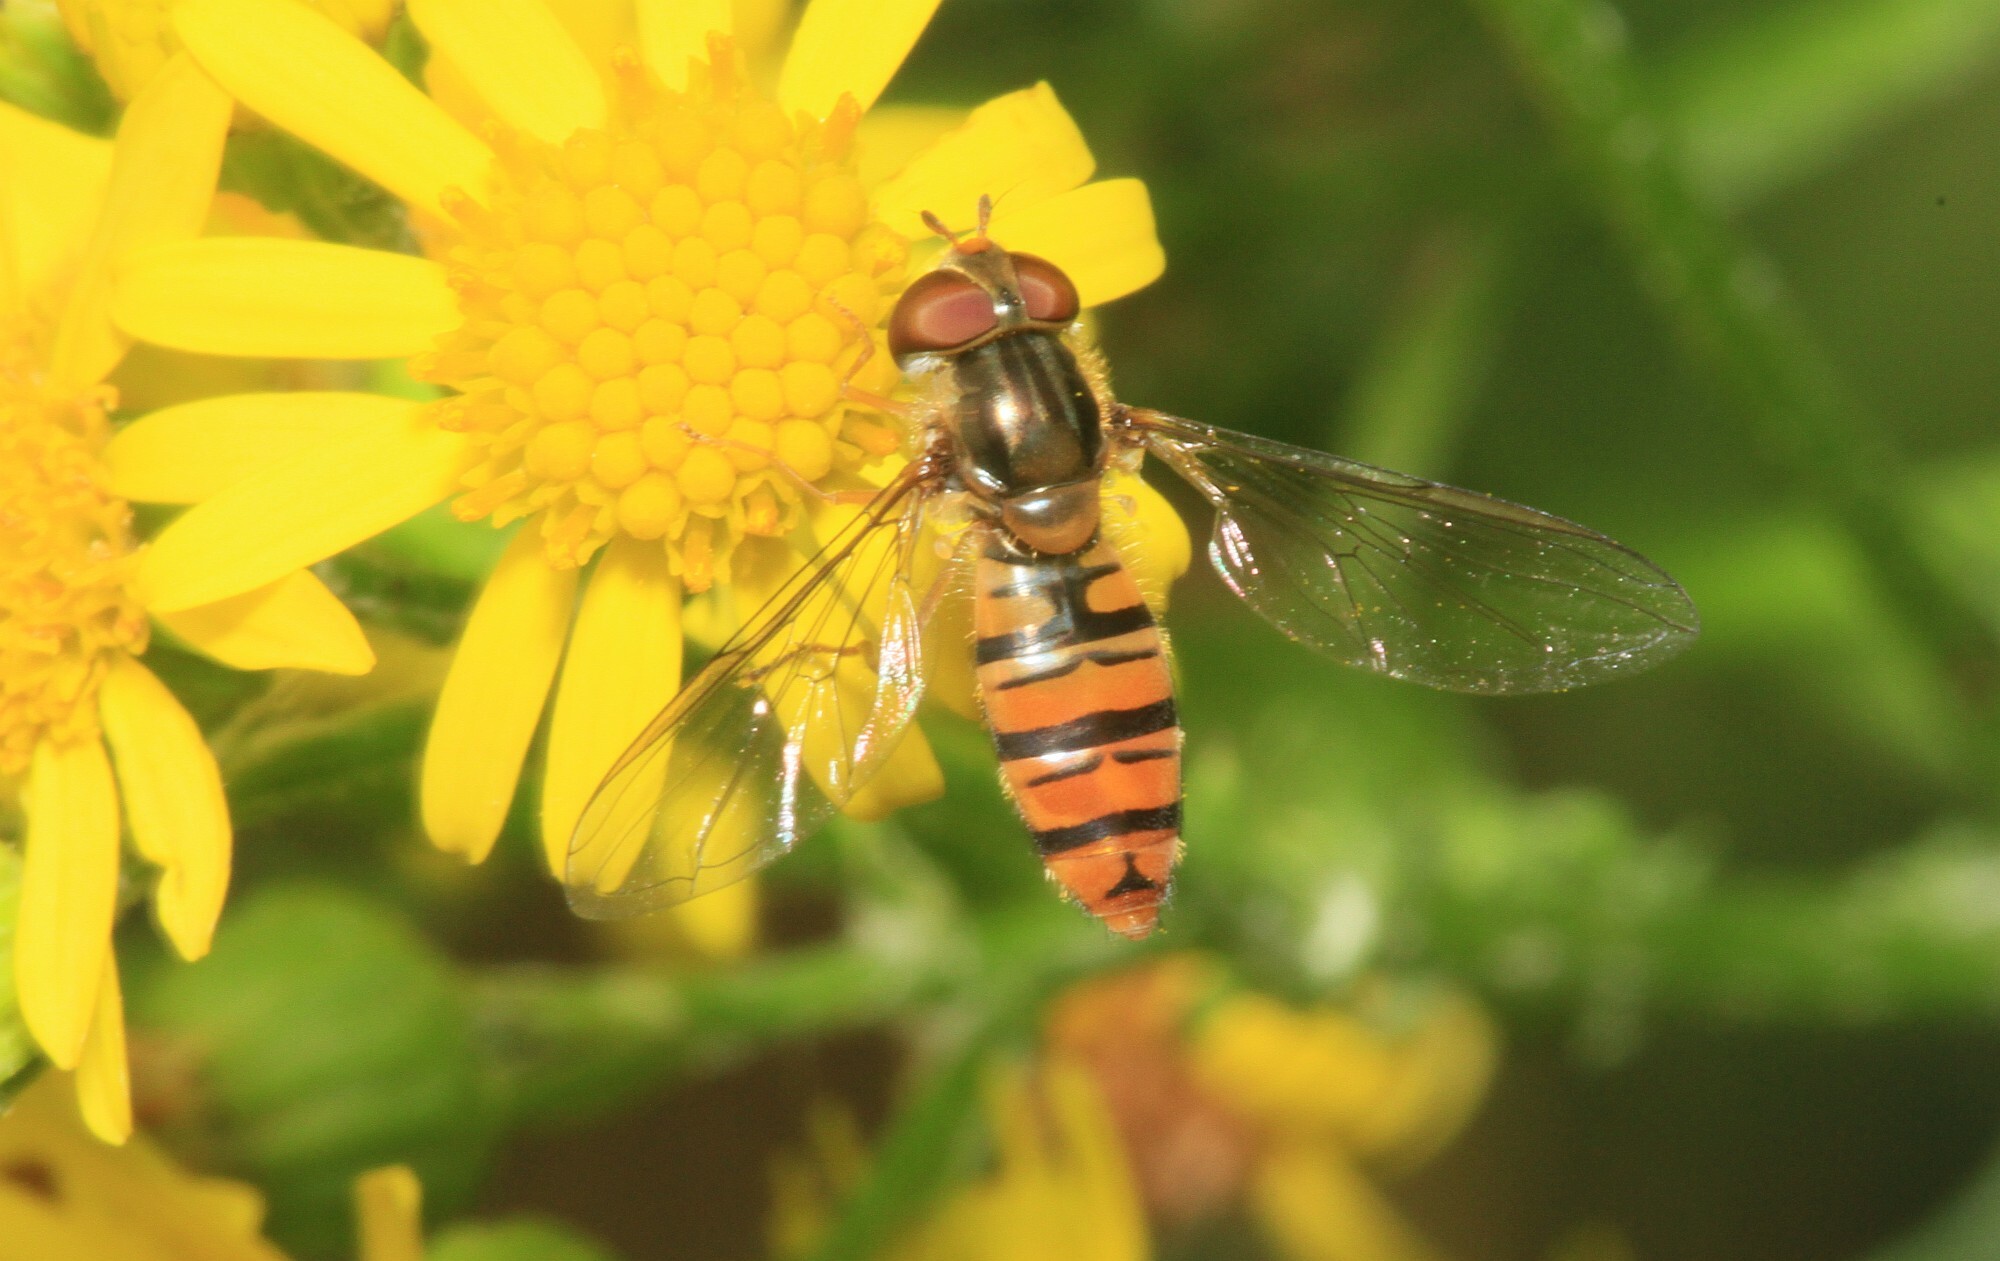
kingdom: Animalia
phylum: Arthropoda
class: Insecta
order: Diptera
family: Syrphidae
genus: Episyrphus
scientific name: Episyrphus balteatus
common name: Marmalade hoverfly
